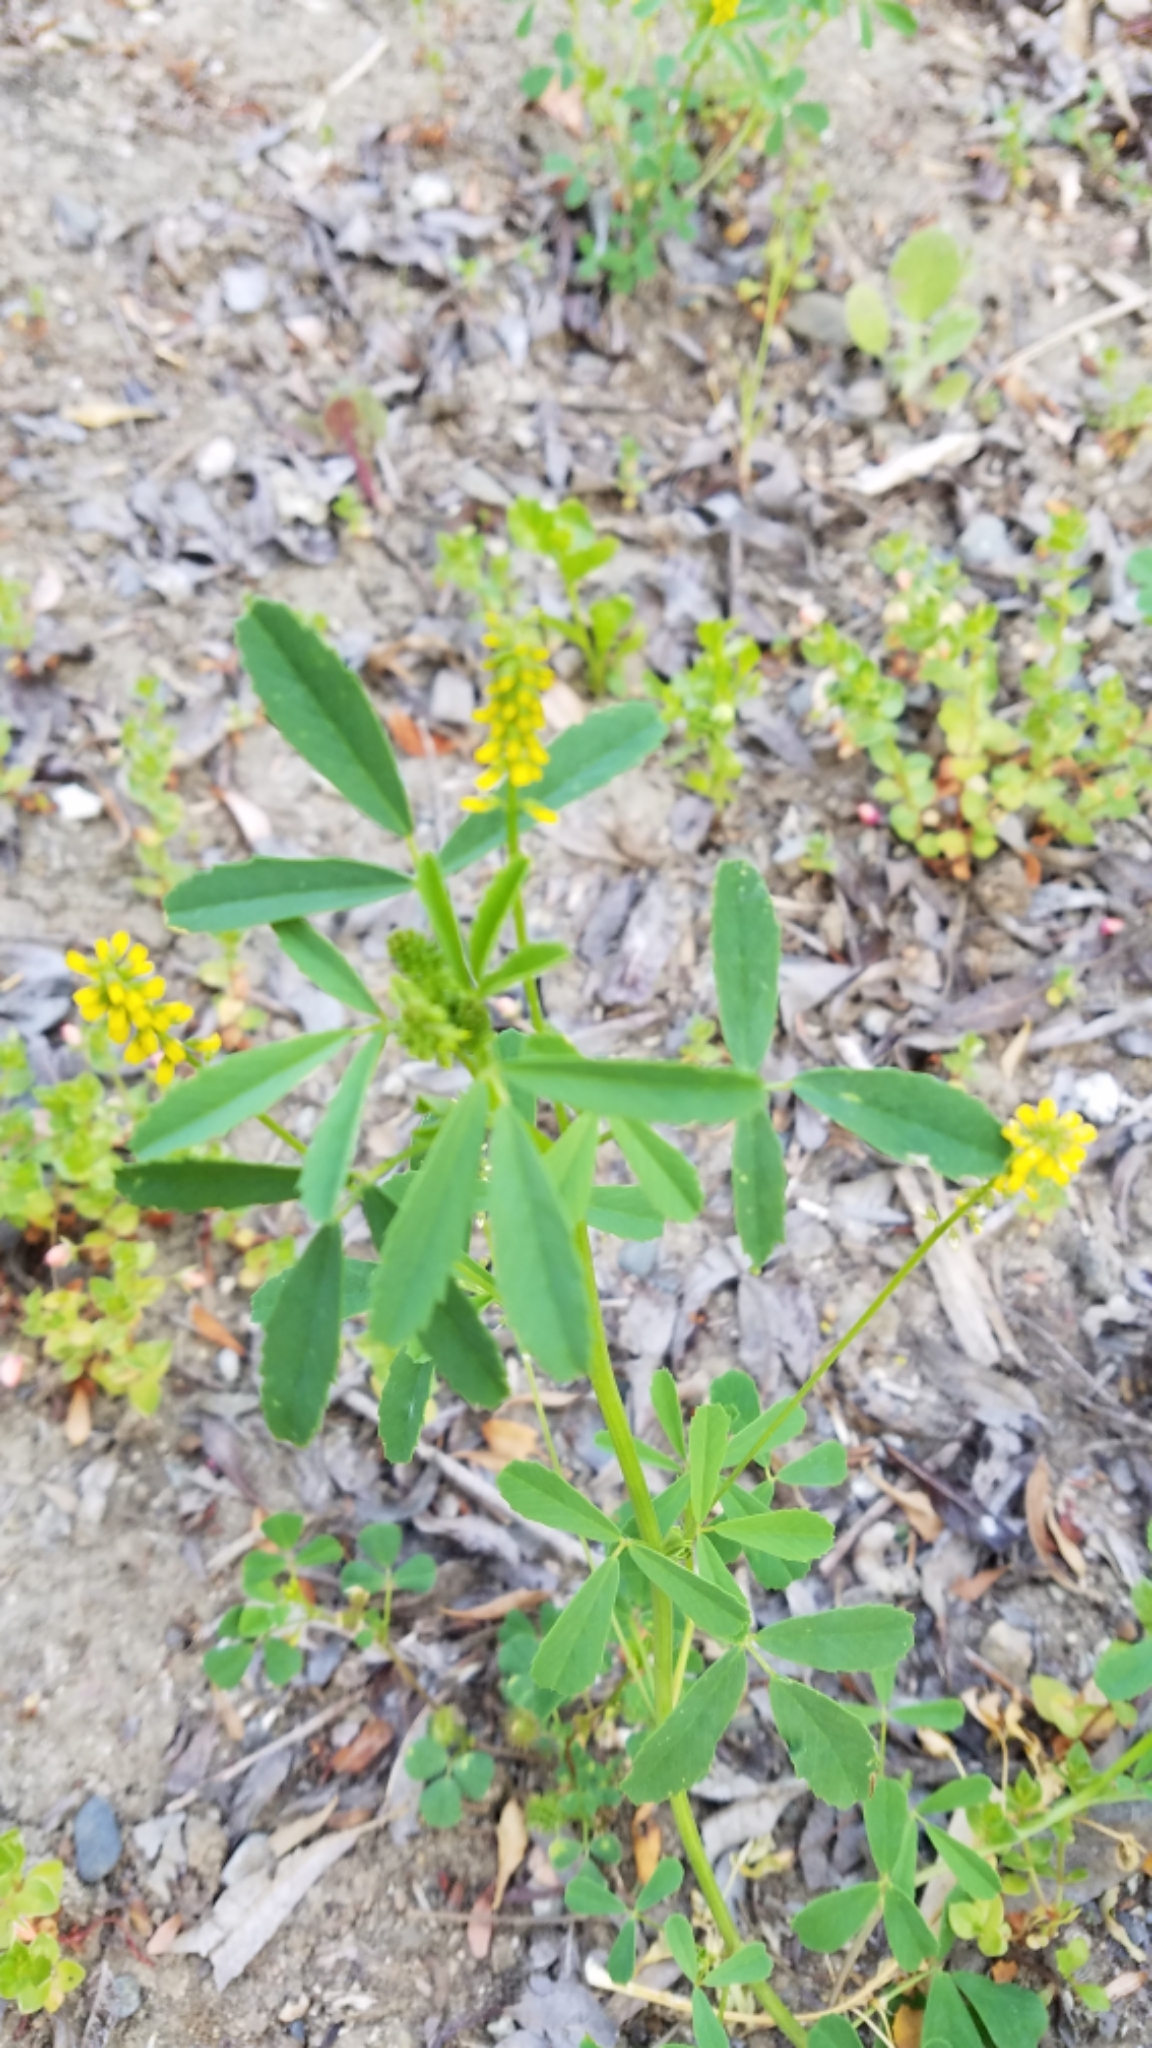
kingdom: Plantae
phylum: Tracheophyta
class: Magnoliopsida
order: Fabales
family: Fabaceae
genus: Melilotus
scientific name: Melilotus indicus
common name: Small melilot
